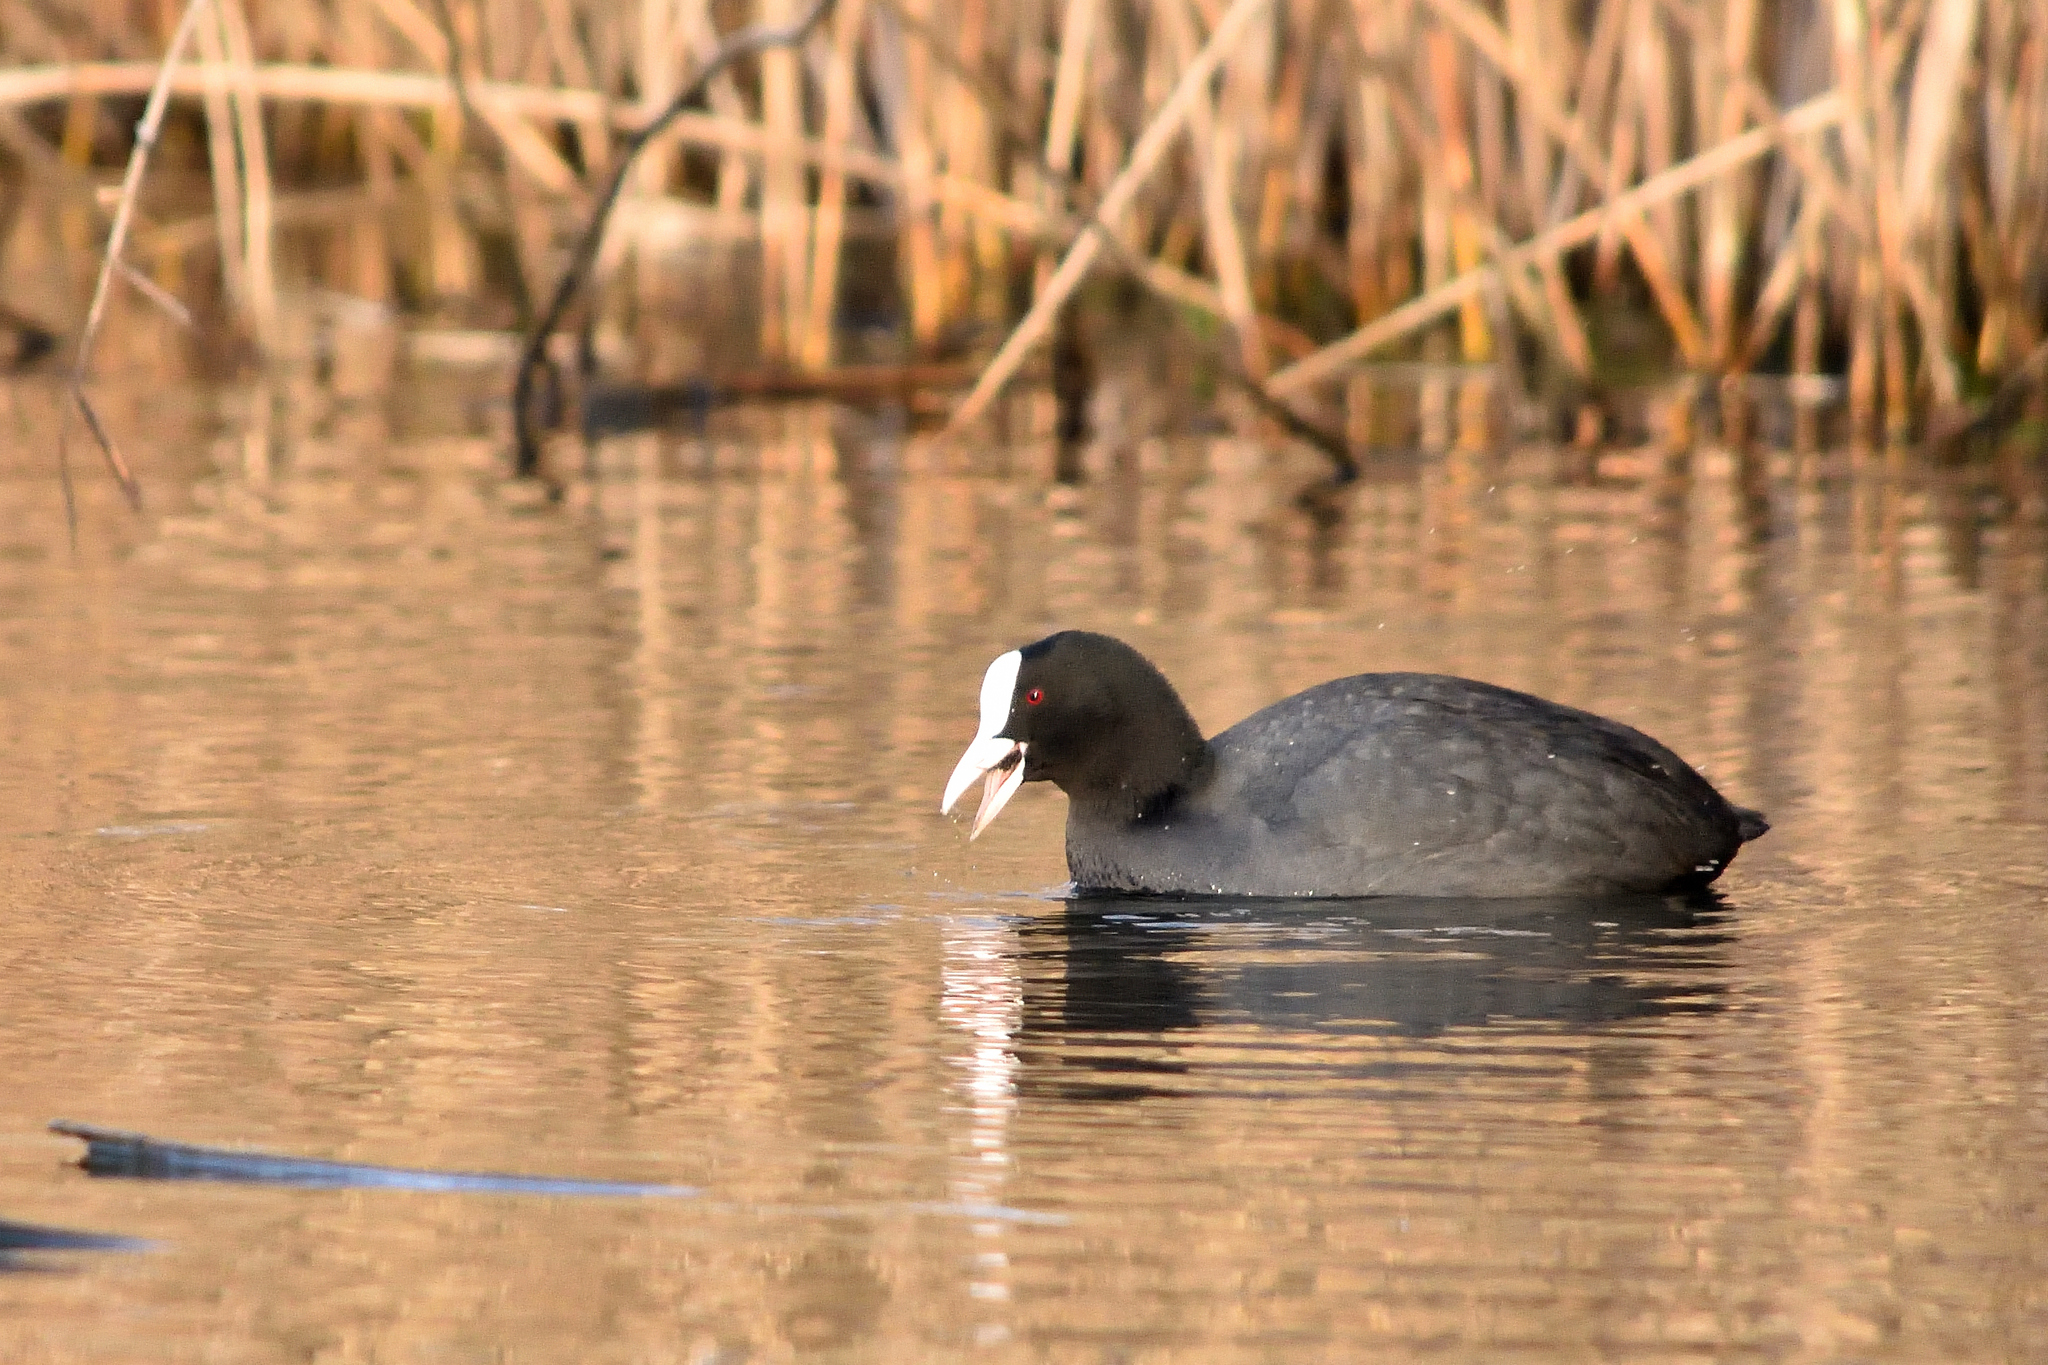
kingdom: Animalia
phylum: Chordata
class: Aves
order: Gruiformes
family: Rallidae
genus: Fulica
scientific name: Fulica atra
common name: Eurasian coot
